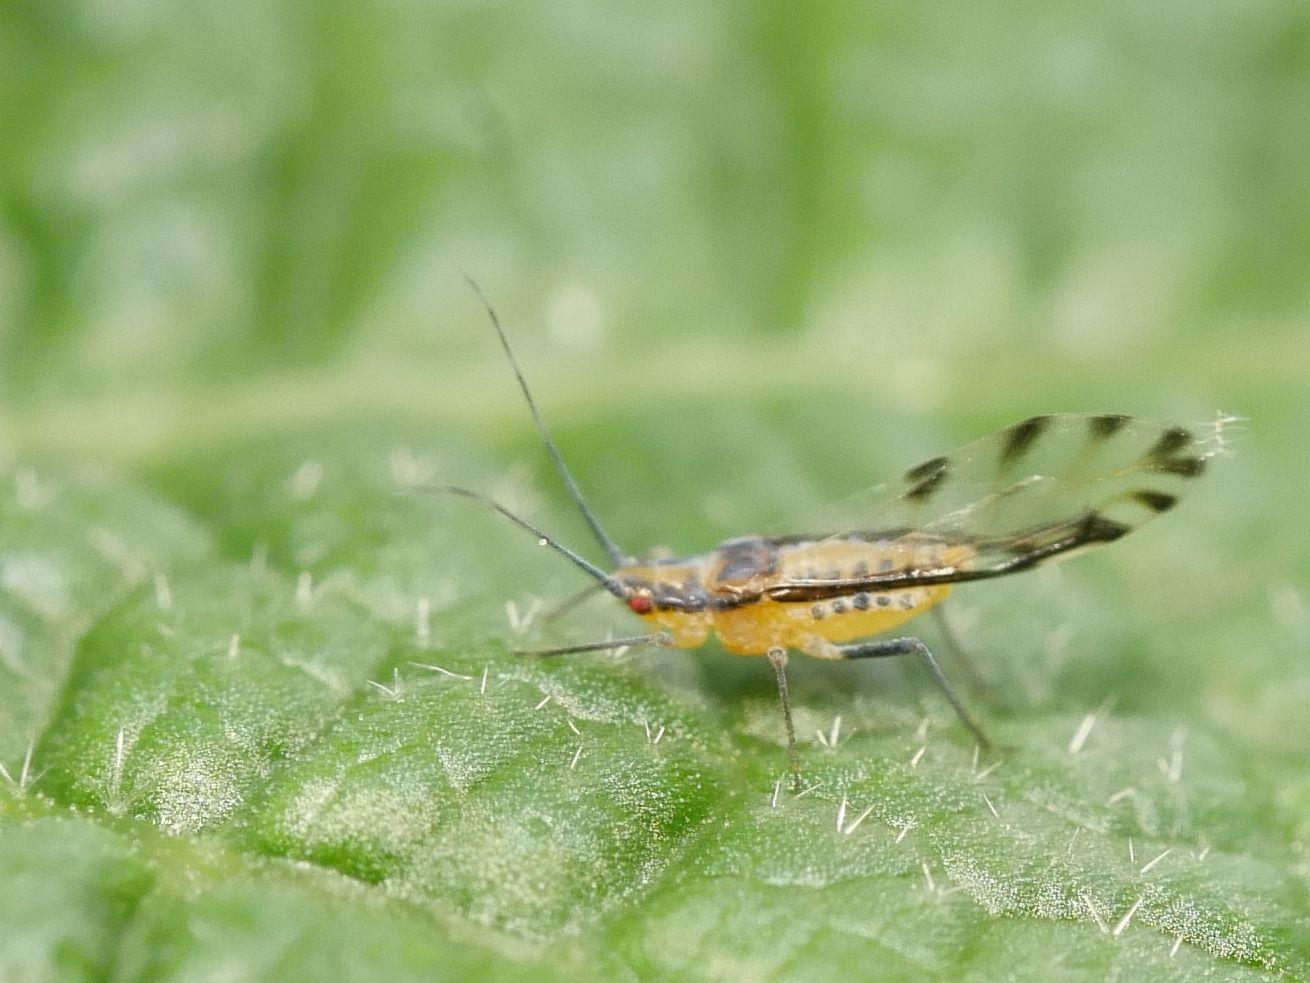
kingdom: Animalia
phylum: Arthropoda
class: Insecta
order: Hemiptera
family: Aphididae
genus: Eucallipterus
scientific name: Eucallipterus tiliae
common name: Aphid
